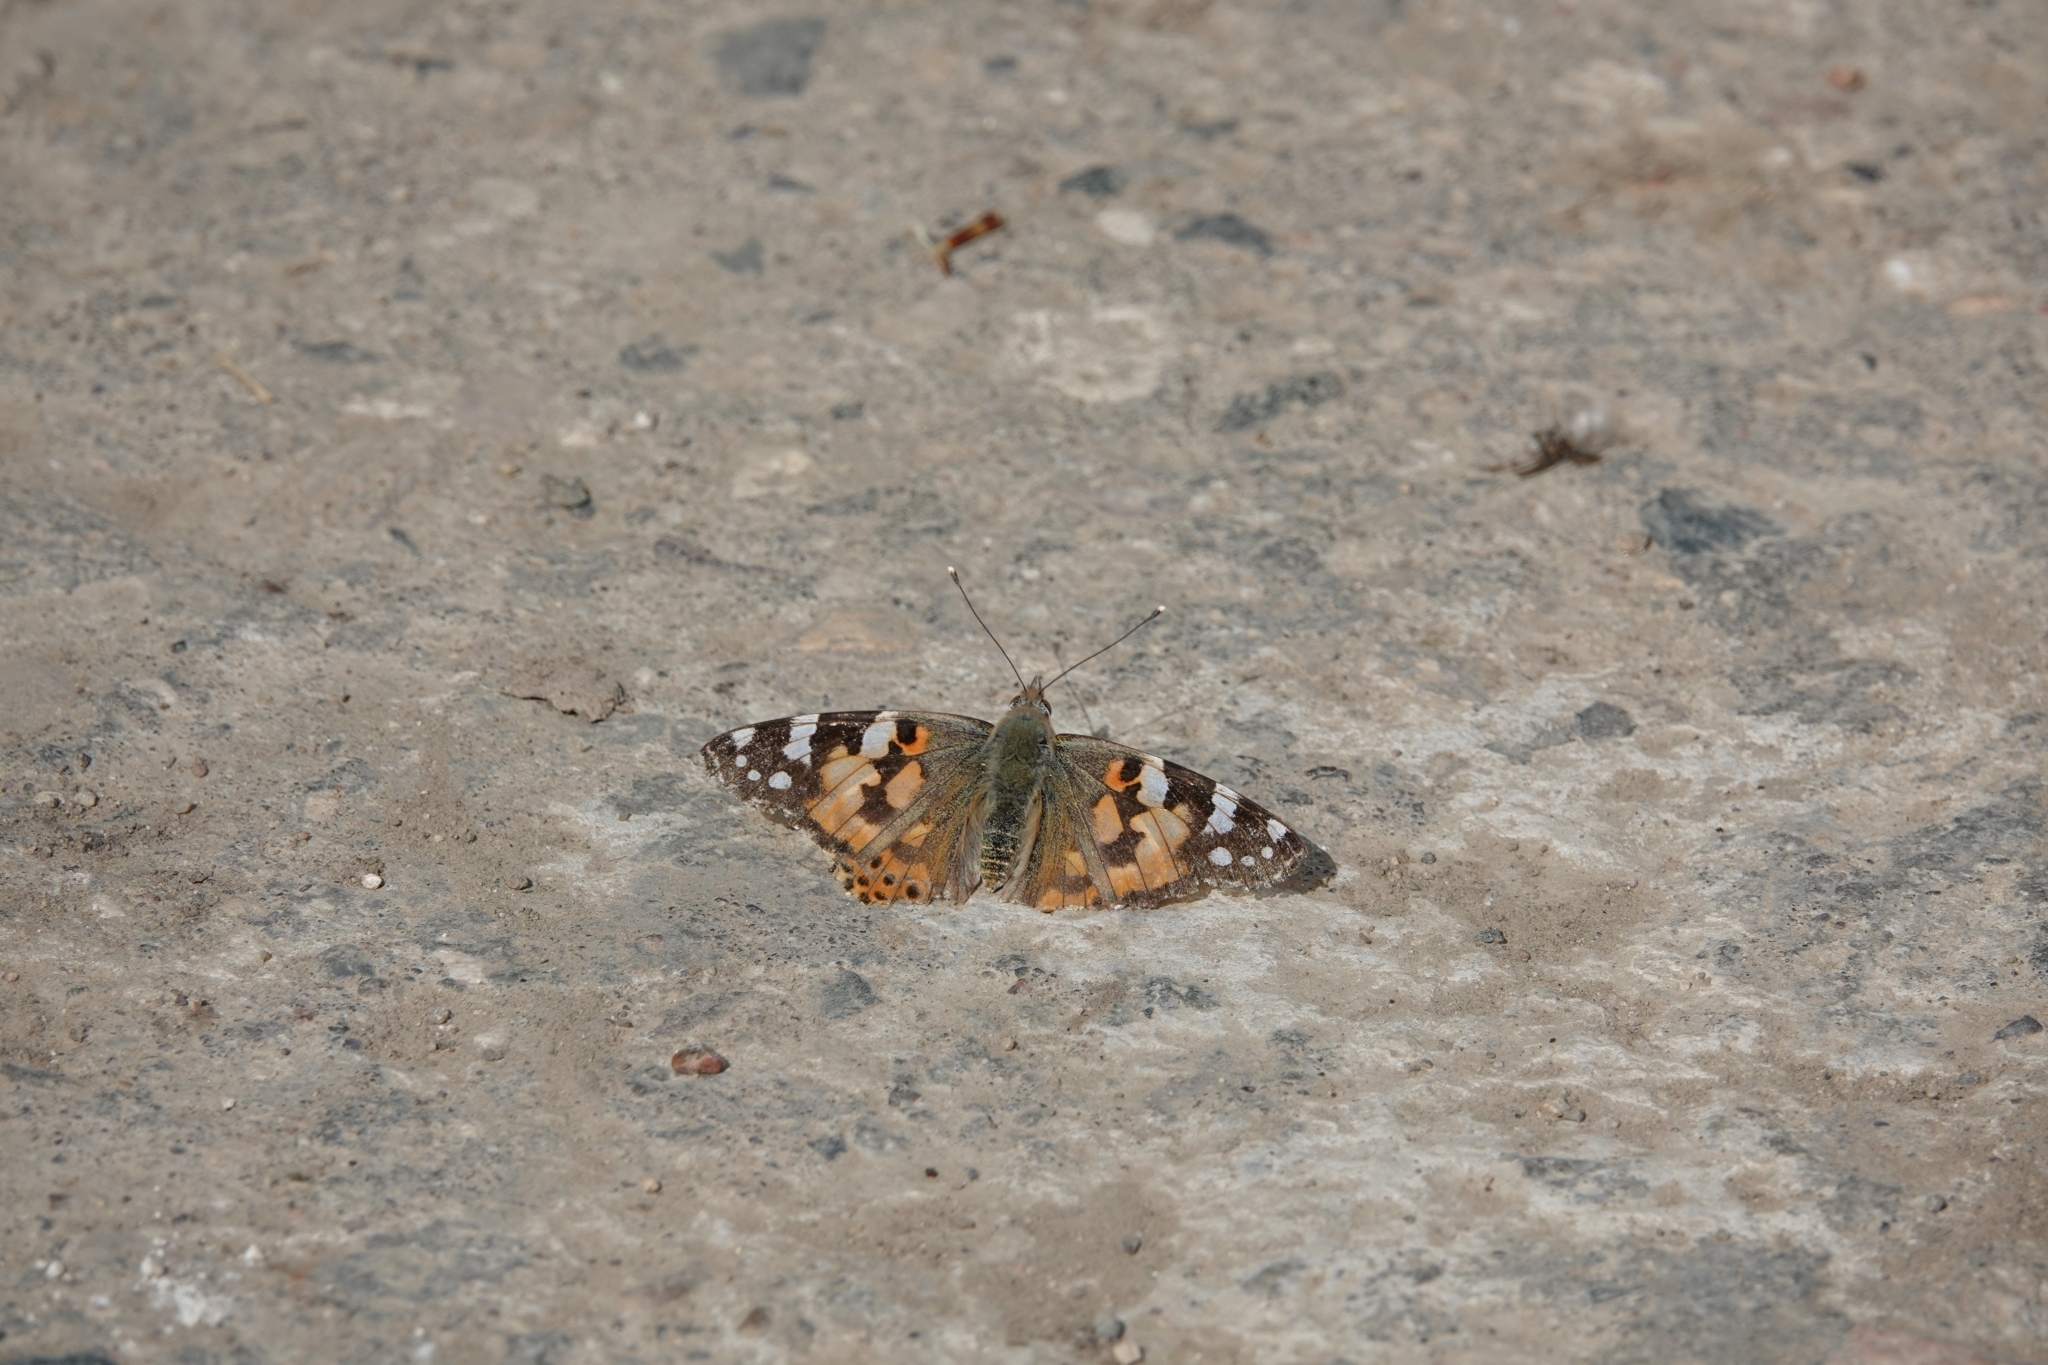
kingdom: Animalia
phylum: Arthropoda
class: Insecta
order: Lepidoptera
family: Nymphalidae
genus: Vanessa
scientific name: Vanessa cardui
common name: Painted lady
